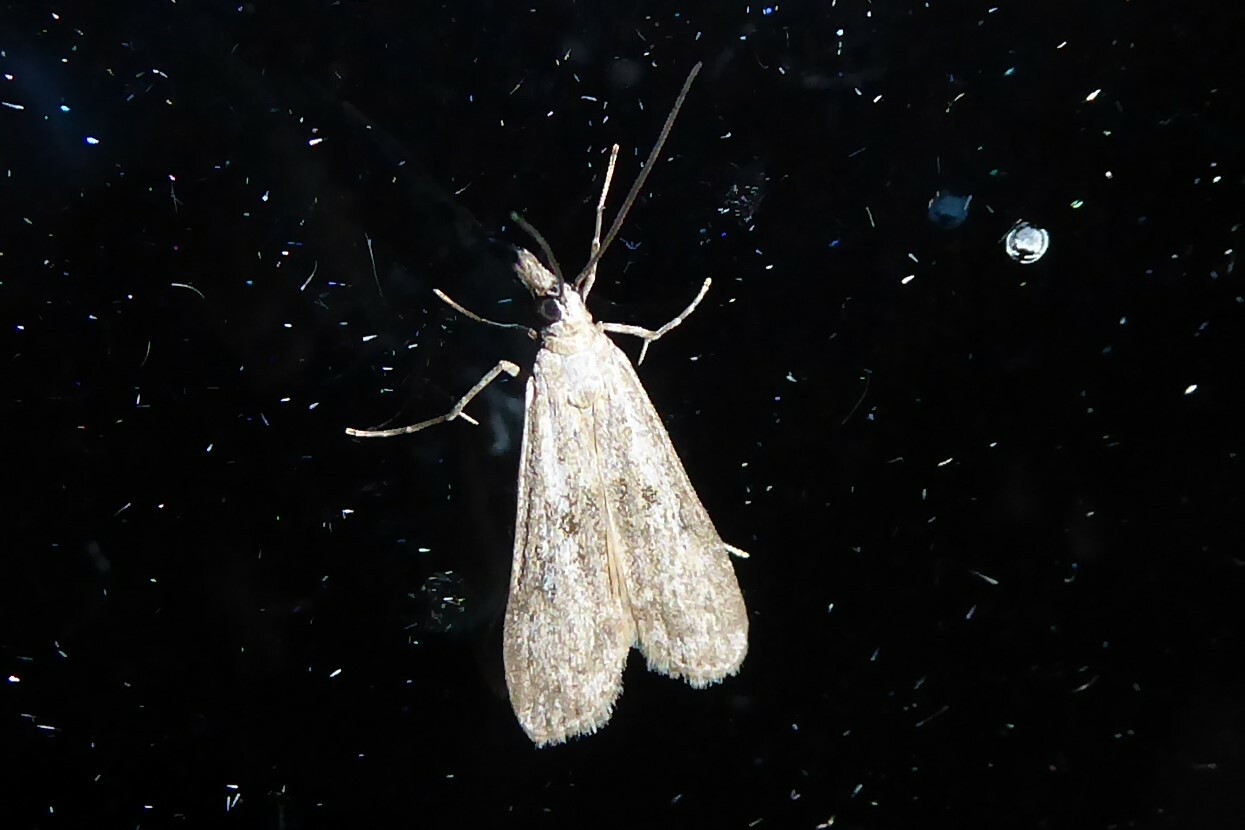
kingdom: Animalia
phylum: Arthropoda
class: Insecta
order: Lepidoptera
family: Crambidae
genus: Eudonia
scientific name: Eudonia leptalea
